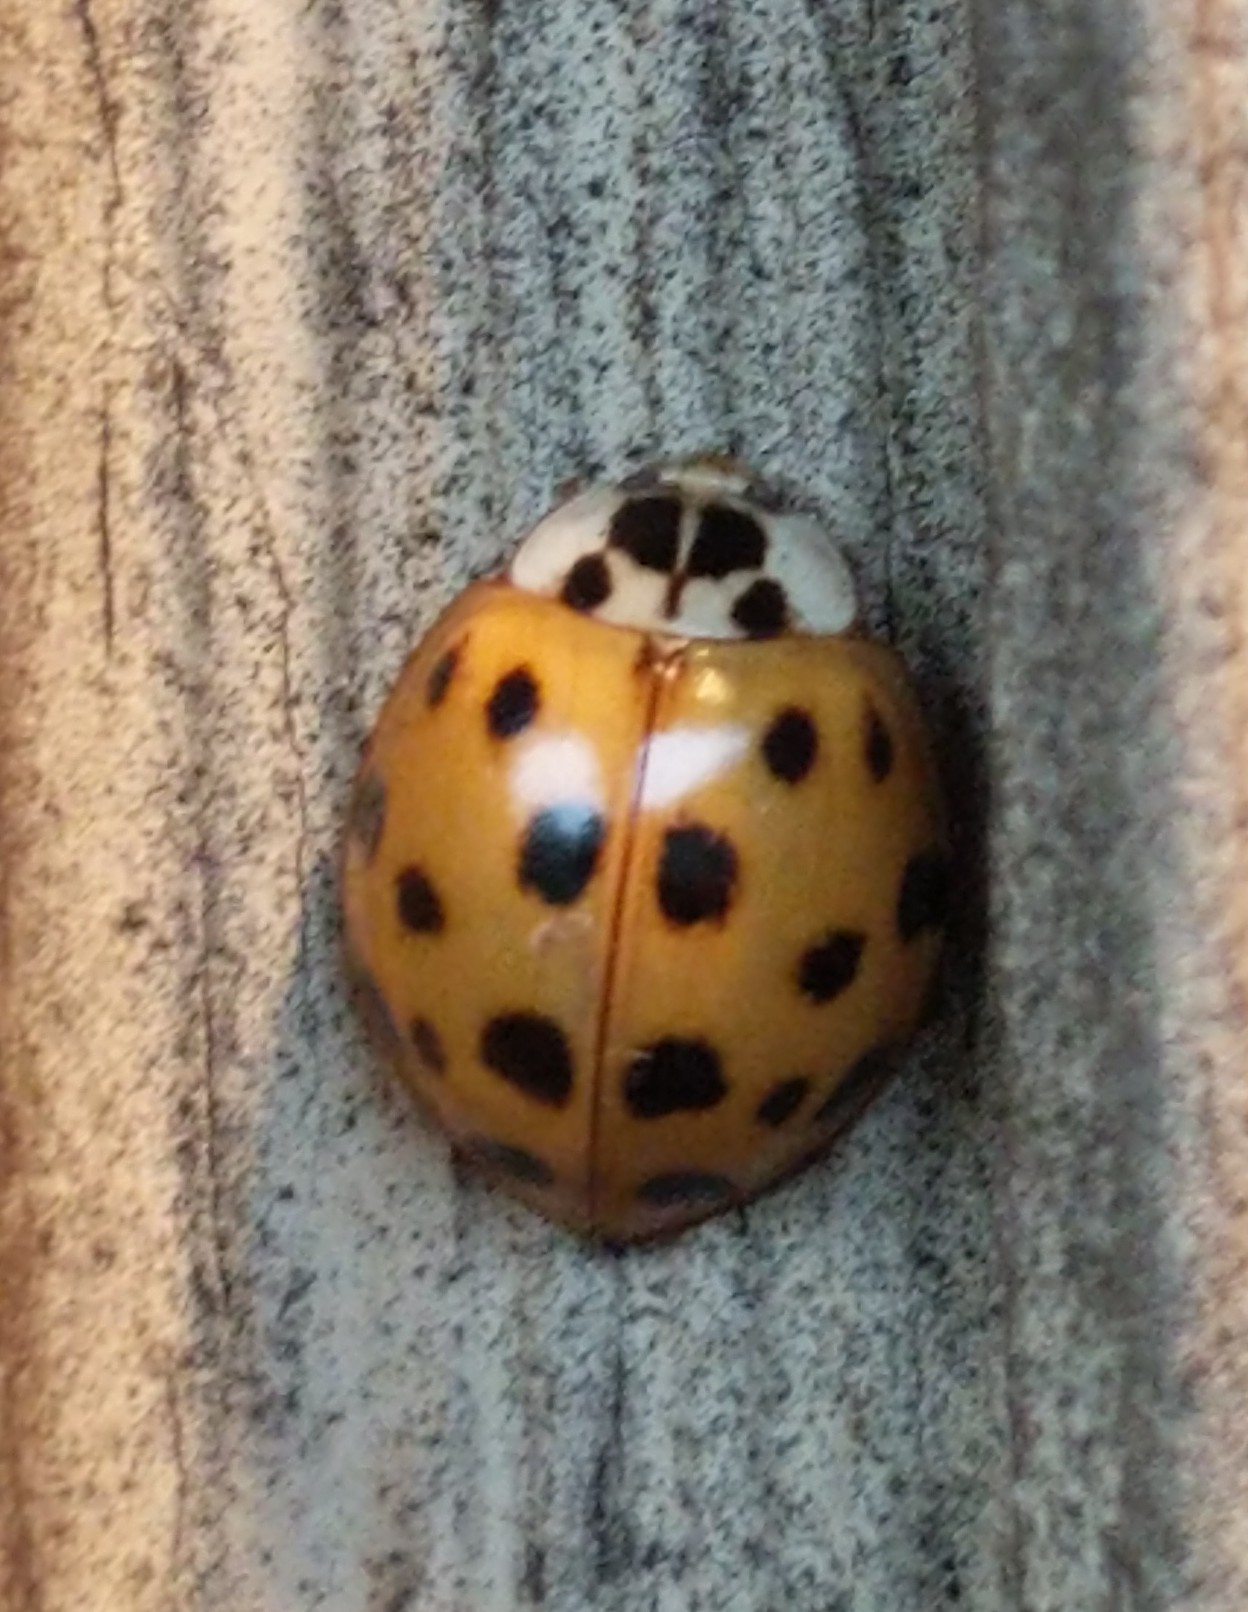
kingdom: Animalia
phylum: Arthropoda
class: Insecta
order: Coleoptera
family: Coccinellidae
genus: Harmonia
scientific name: Harmonia axyridis
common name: Harlequin ladybird
